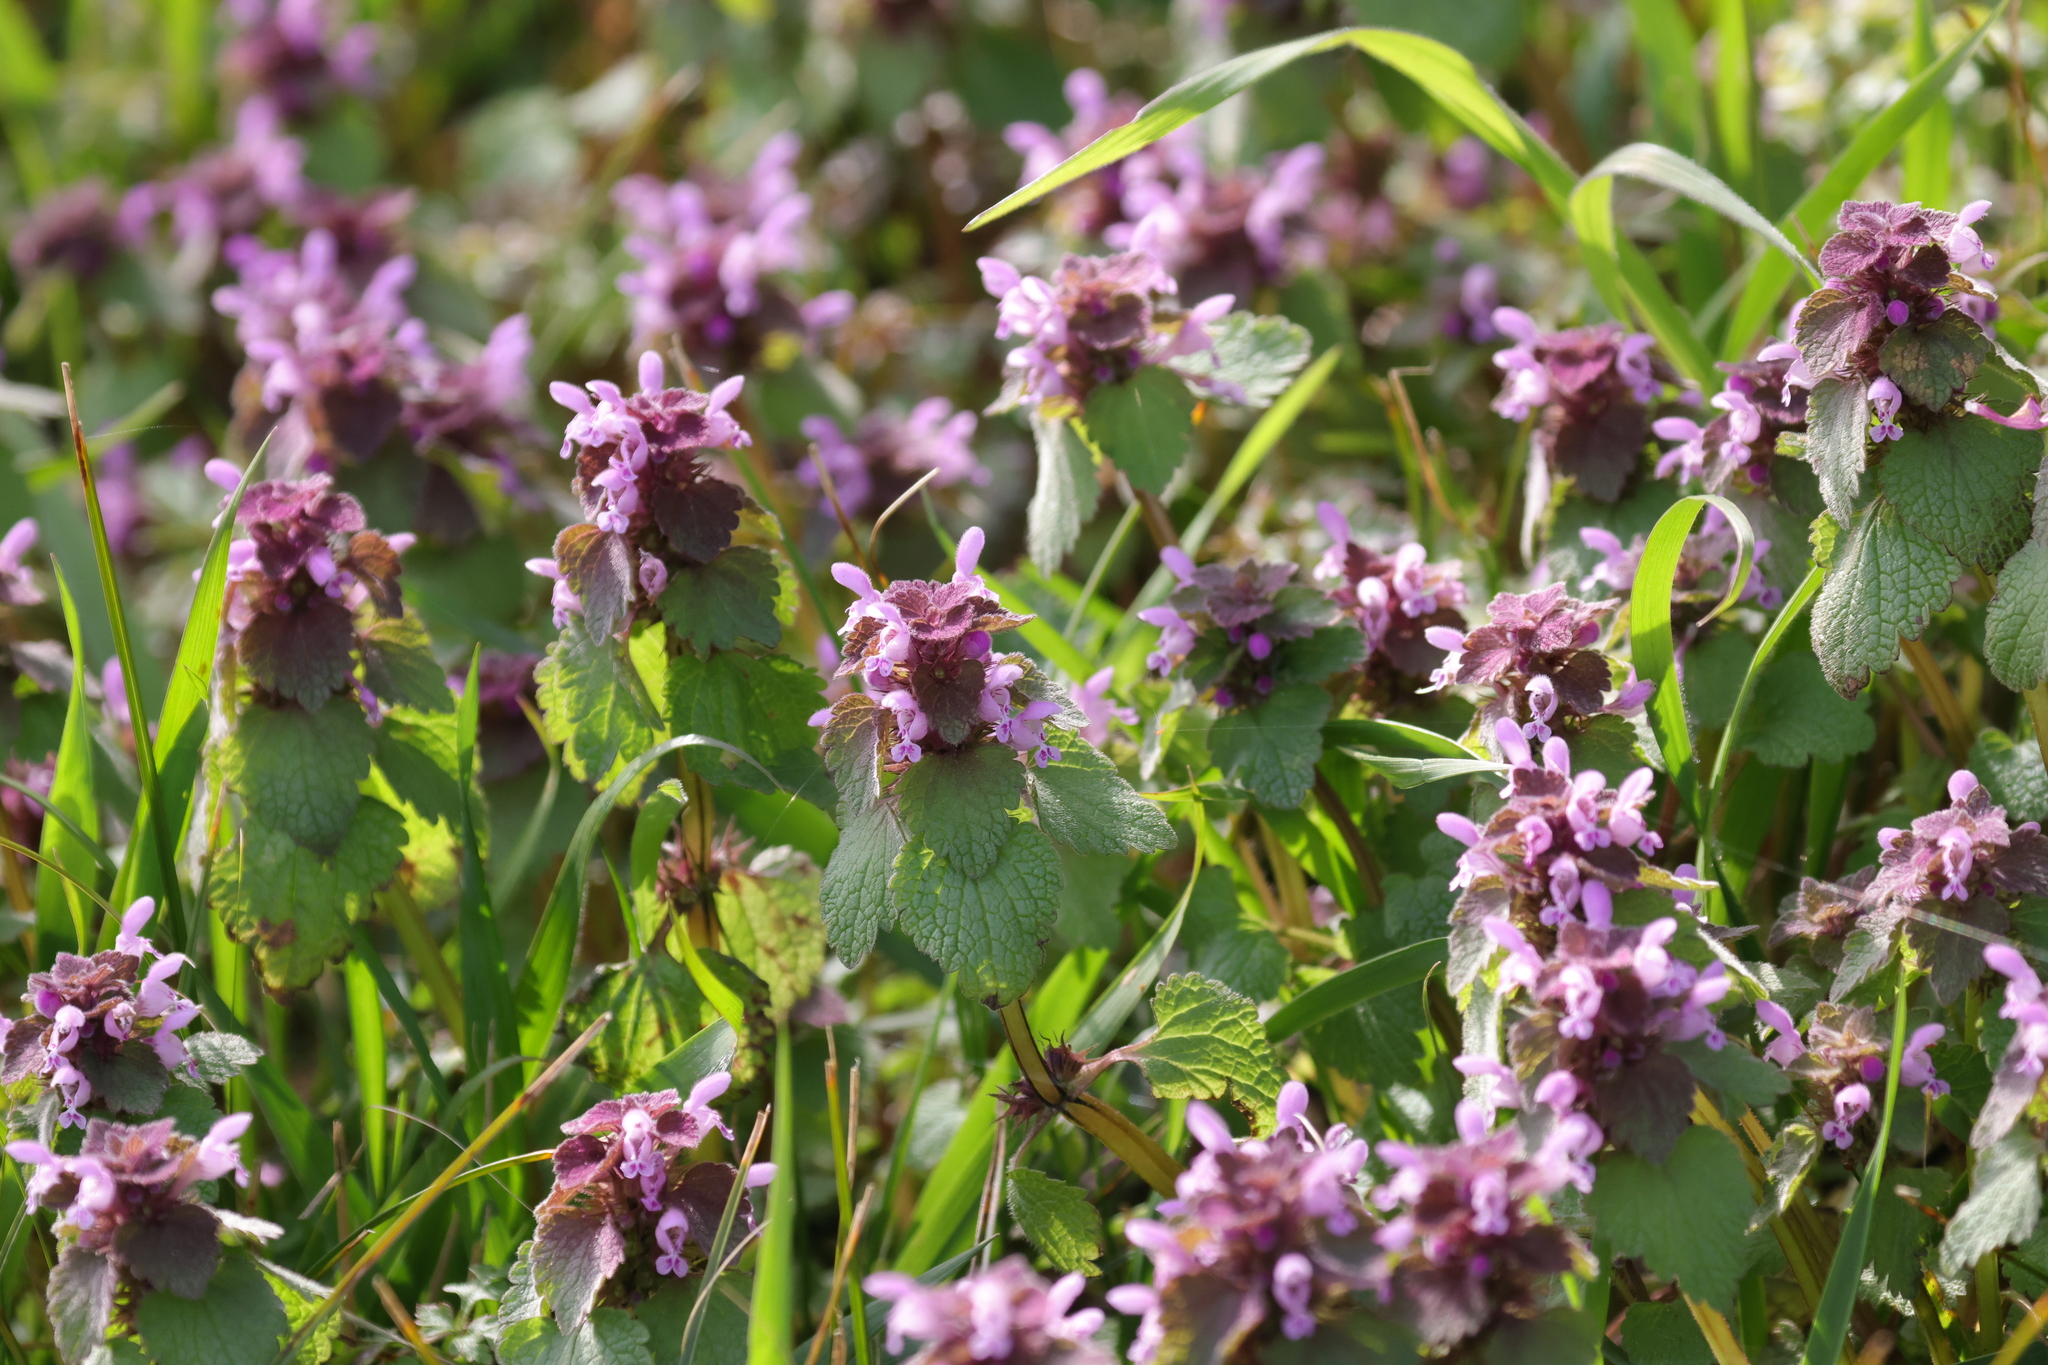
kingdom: Plantae
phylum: Tracheophyta
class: Magnoliopsida
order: Lamiales
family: Lamiaceae
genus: Lamium
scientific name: Lamium purpureum
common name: Red dead-nettle
